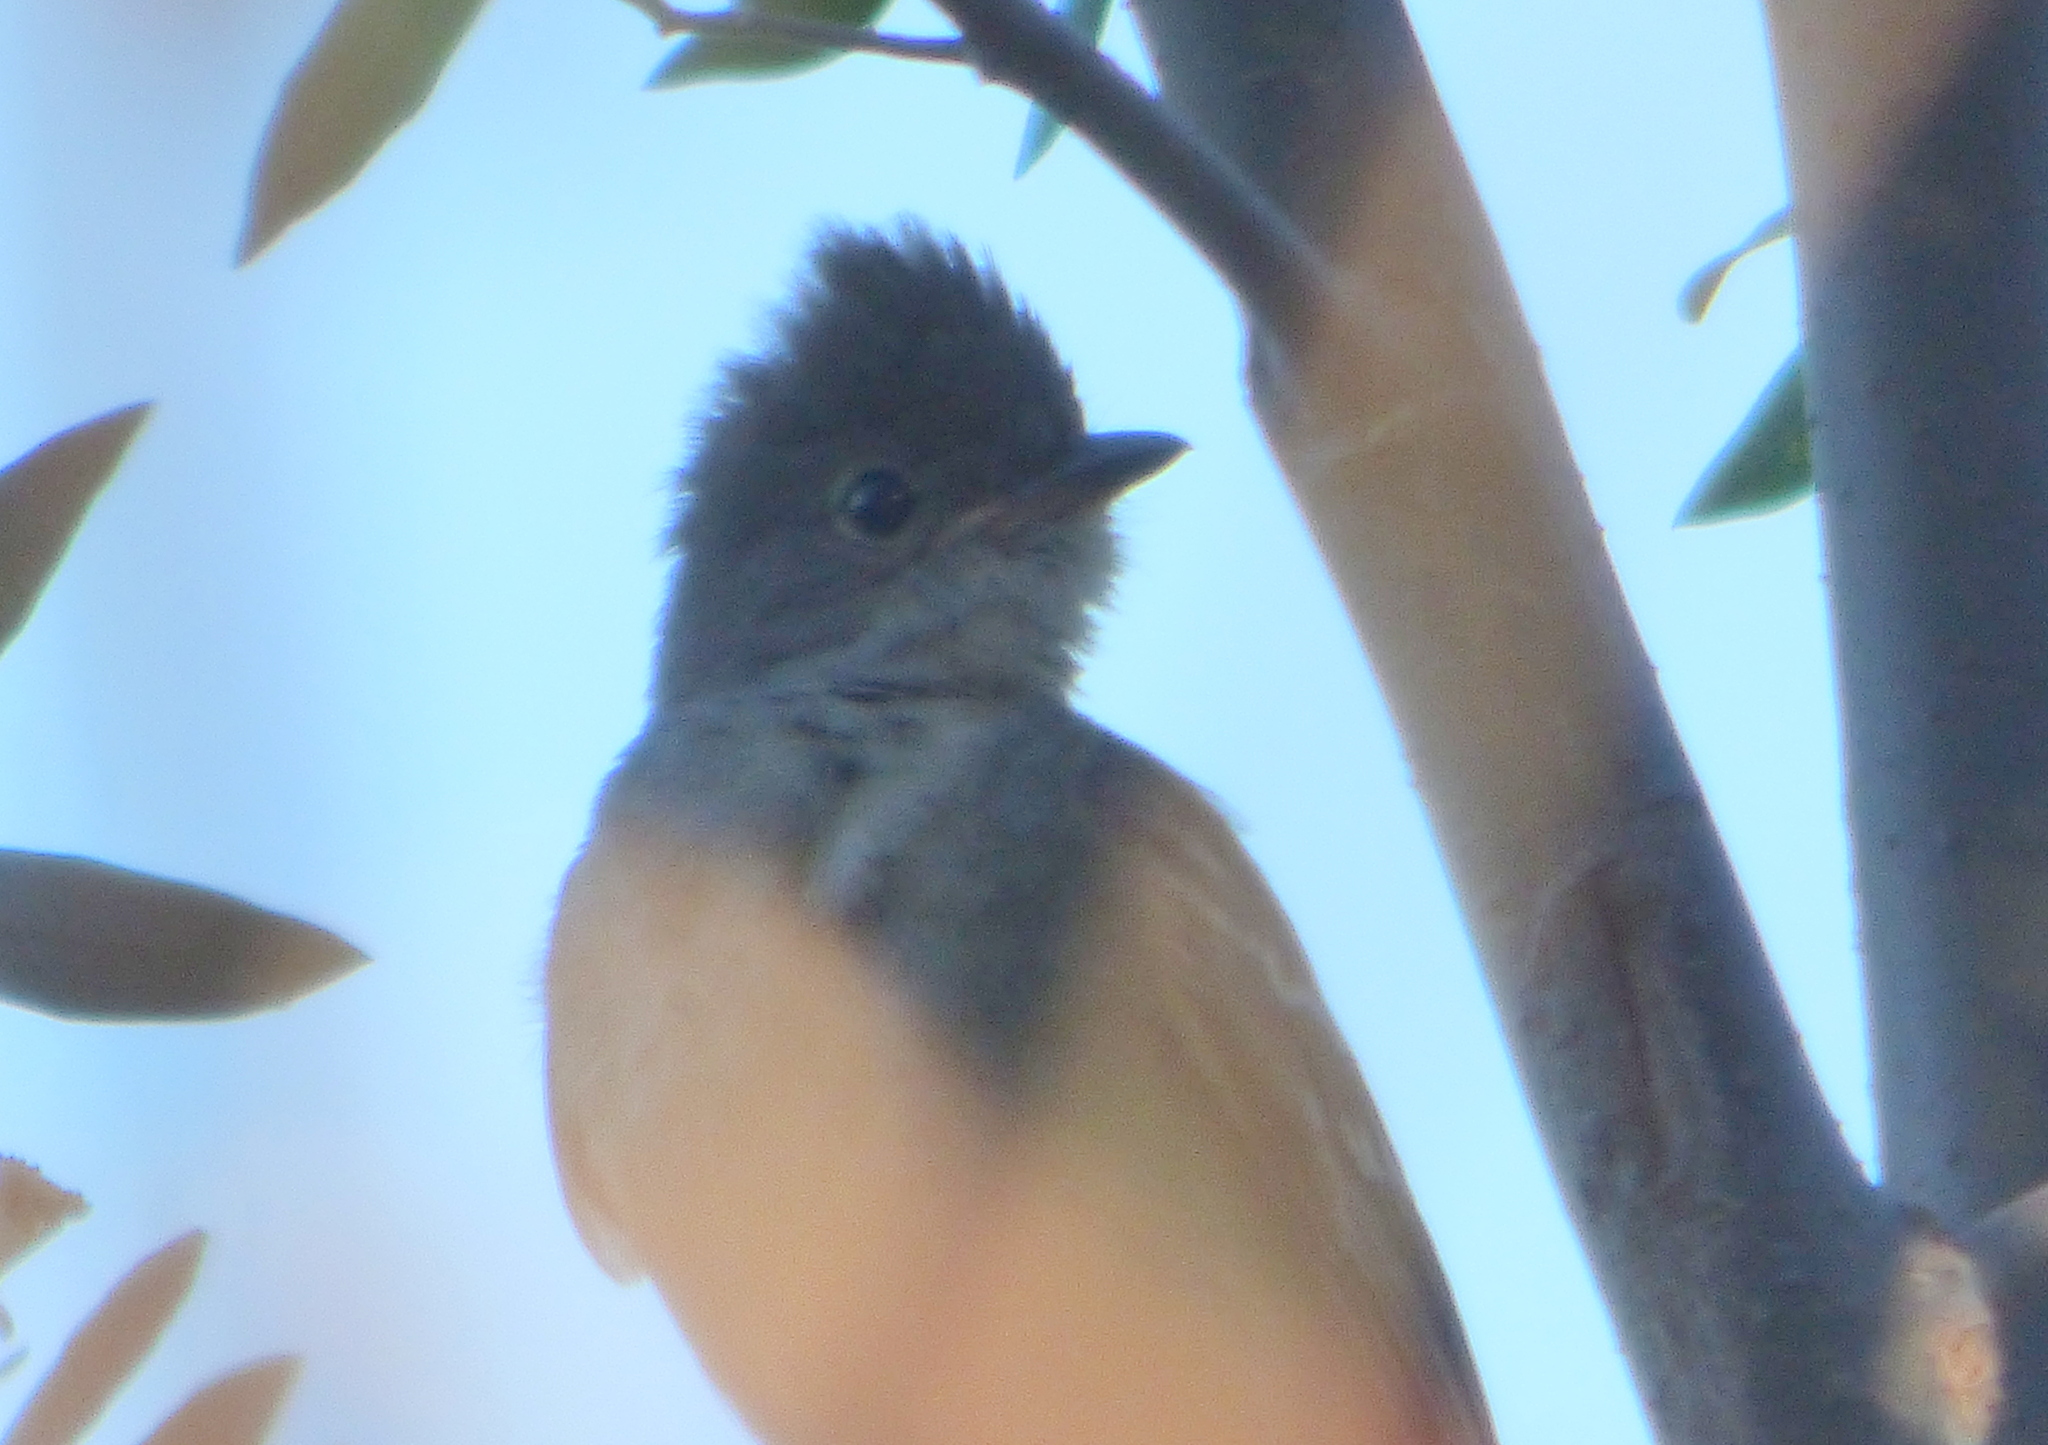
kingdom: Animalia
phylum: Chordata
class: Aves
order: Passeriformes
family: Tyrannidae
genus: Elaenia
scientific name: Elaenia spectabilis
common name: Large elaenia
